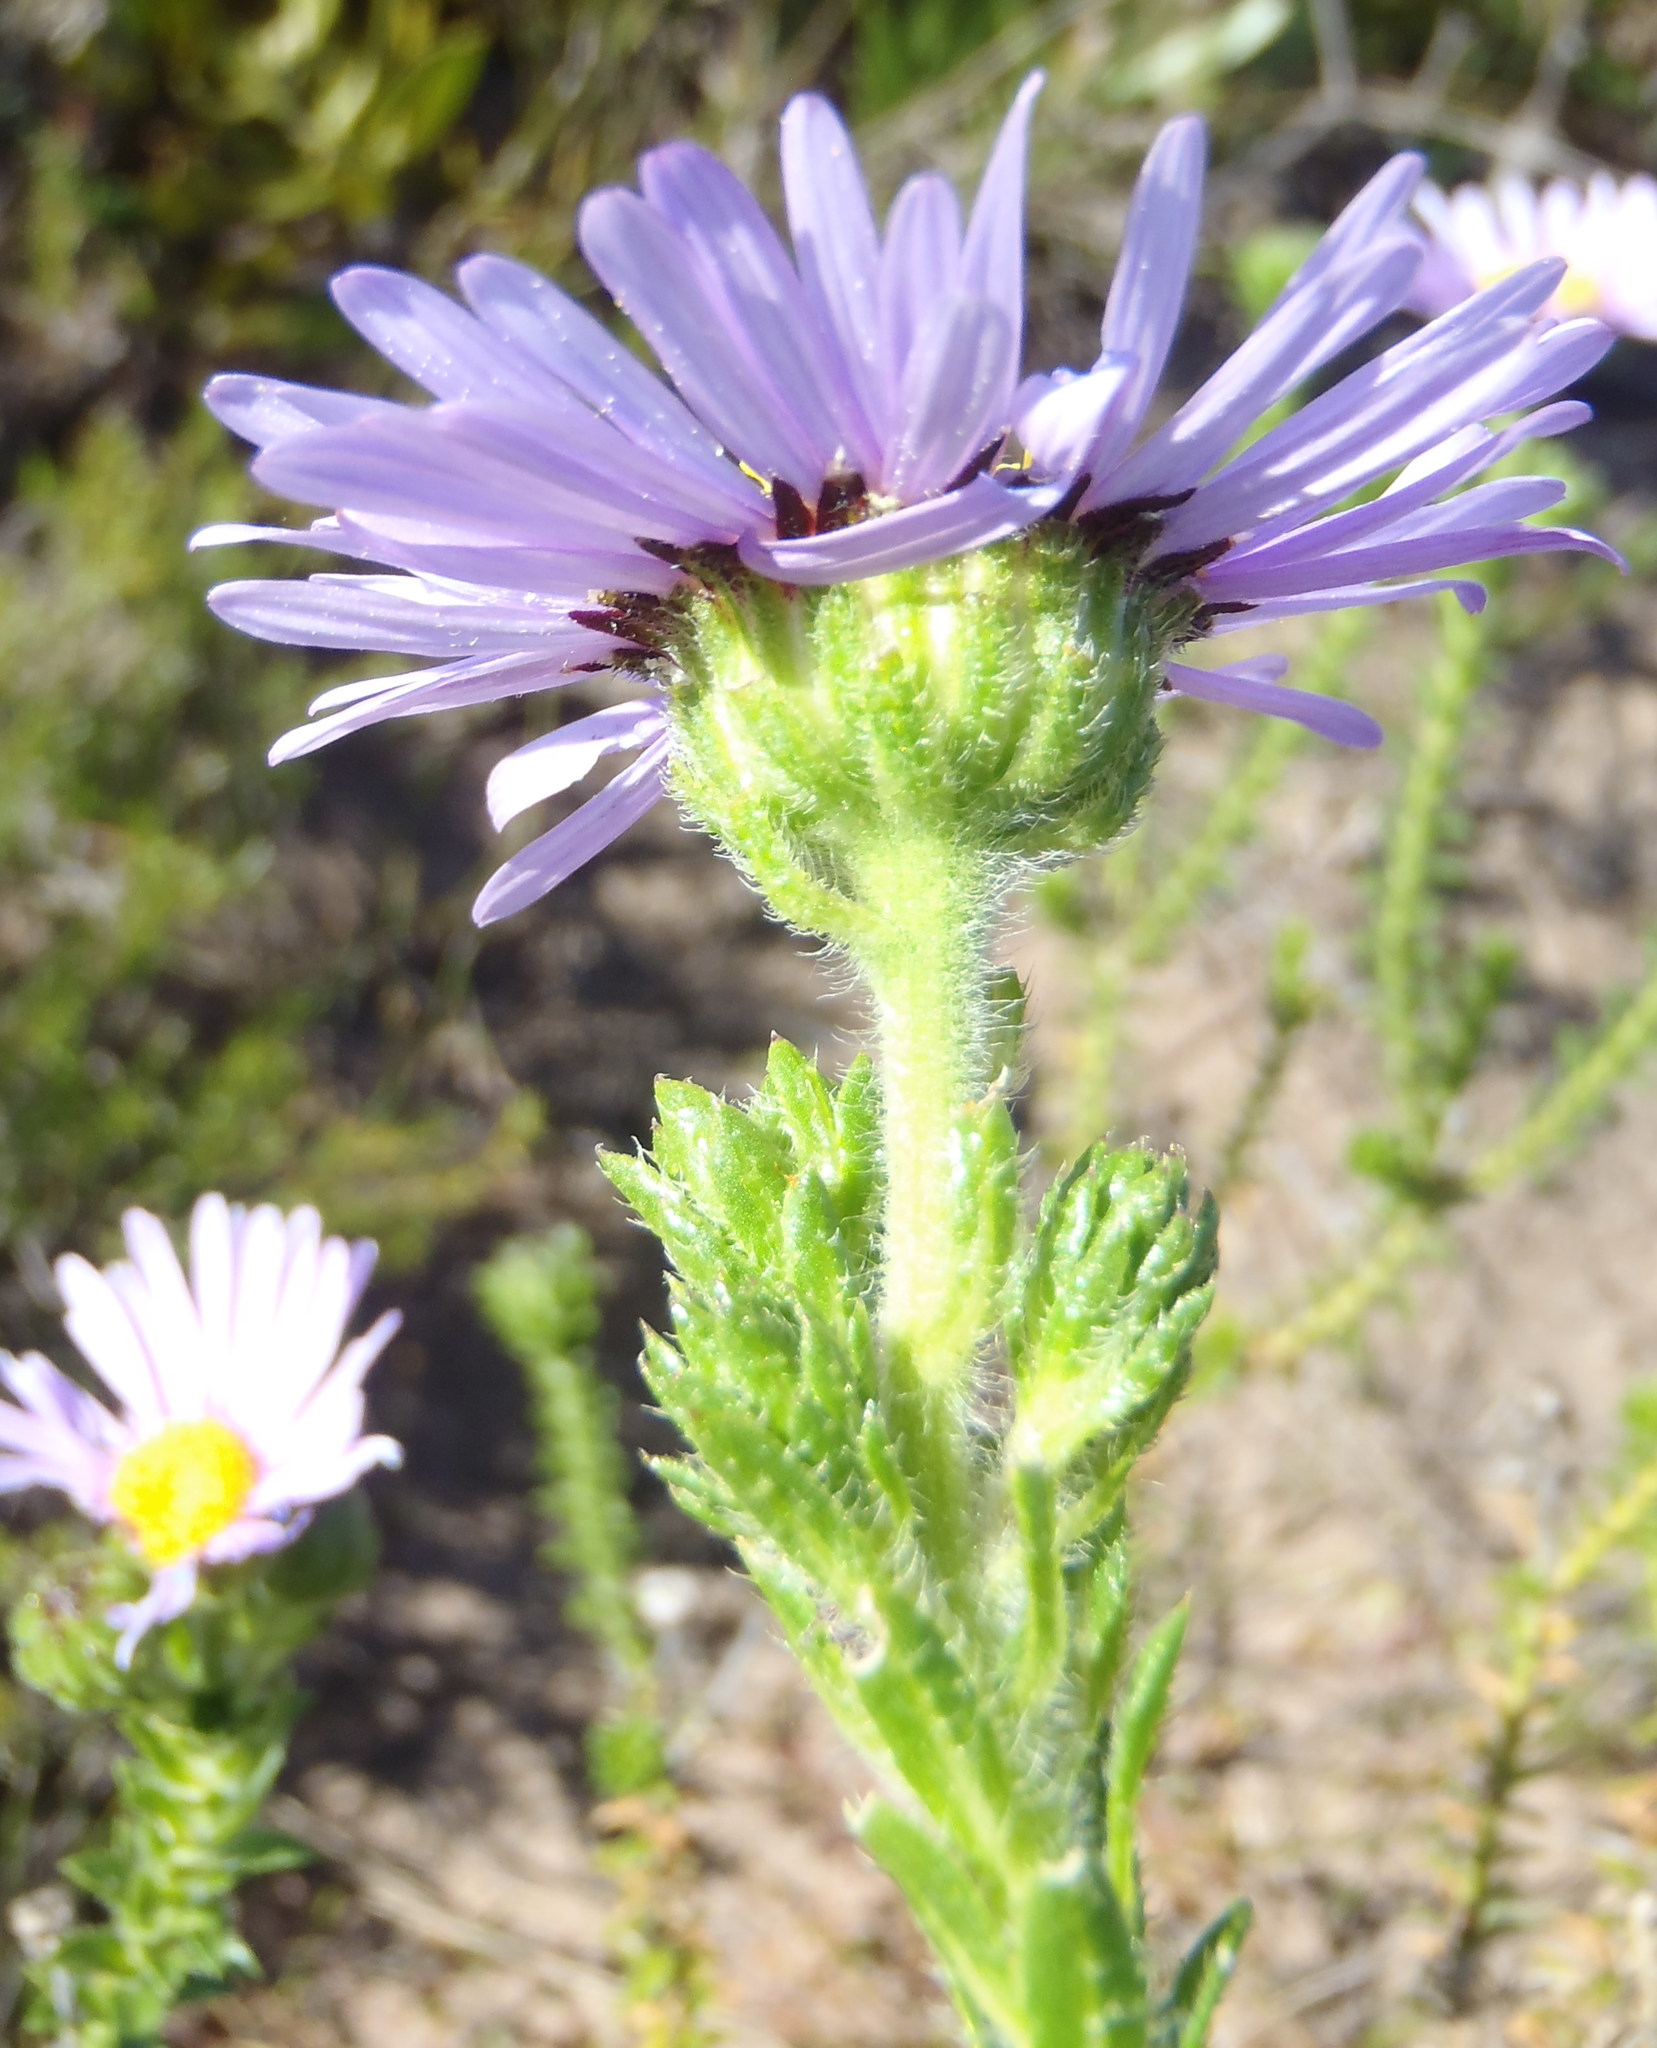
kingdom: Plantae
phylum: Tracheophyta
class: Magnoliopsida
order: Asterales
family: Asteraceae
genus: Felicia
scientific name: Felicia echinata
